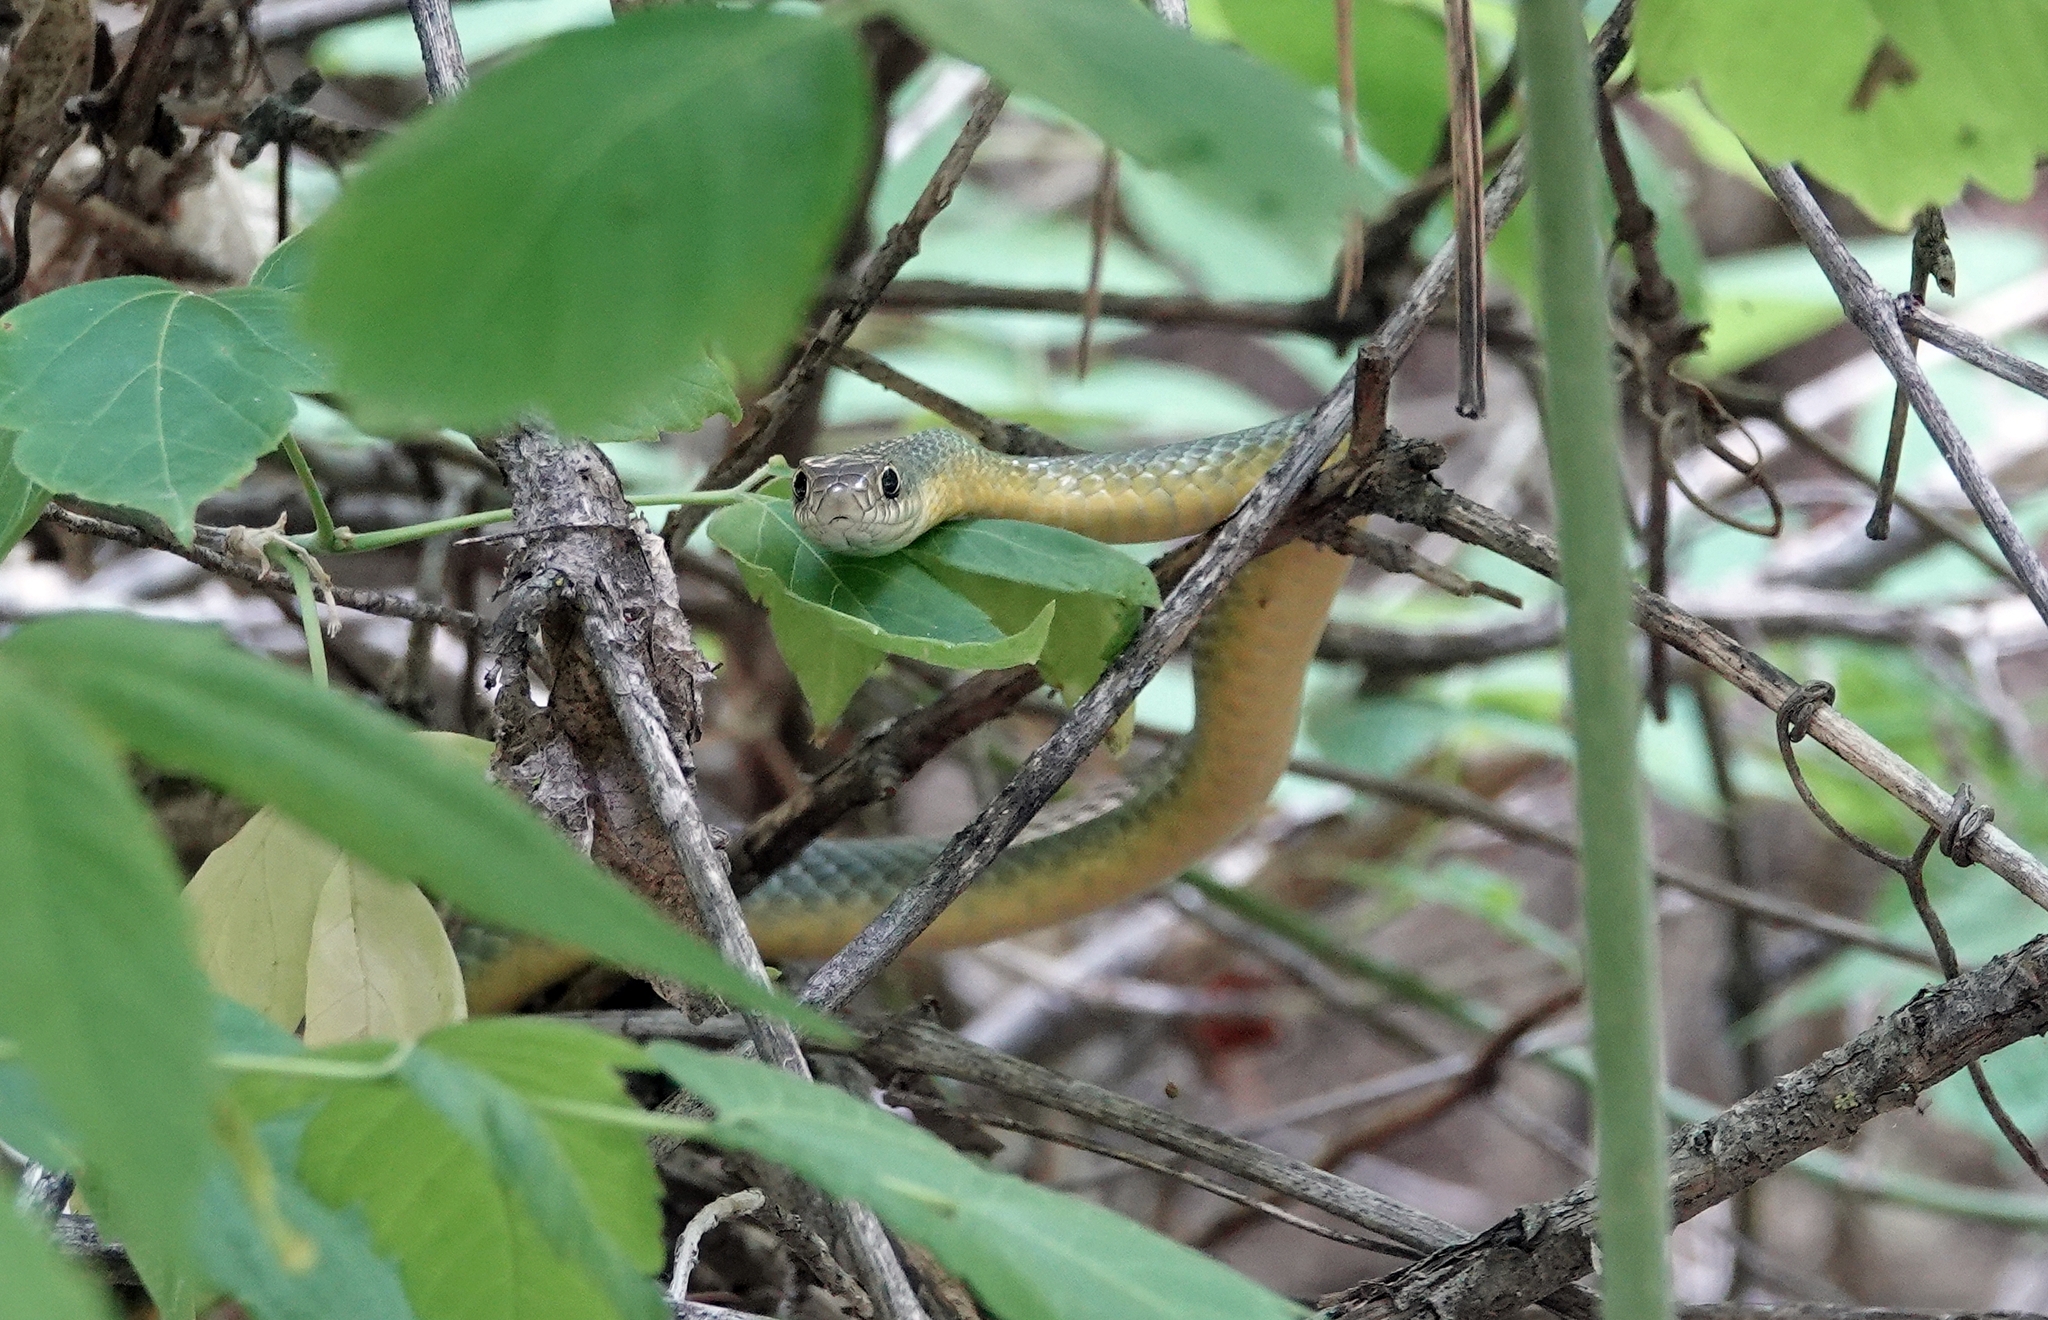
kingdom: Animalia
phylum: Chordata
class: Squamata
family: Colubridae
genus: Coluber
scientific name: Coluber constrictor
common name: Eastern racer
